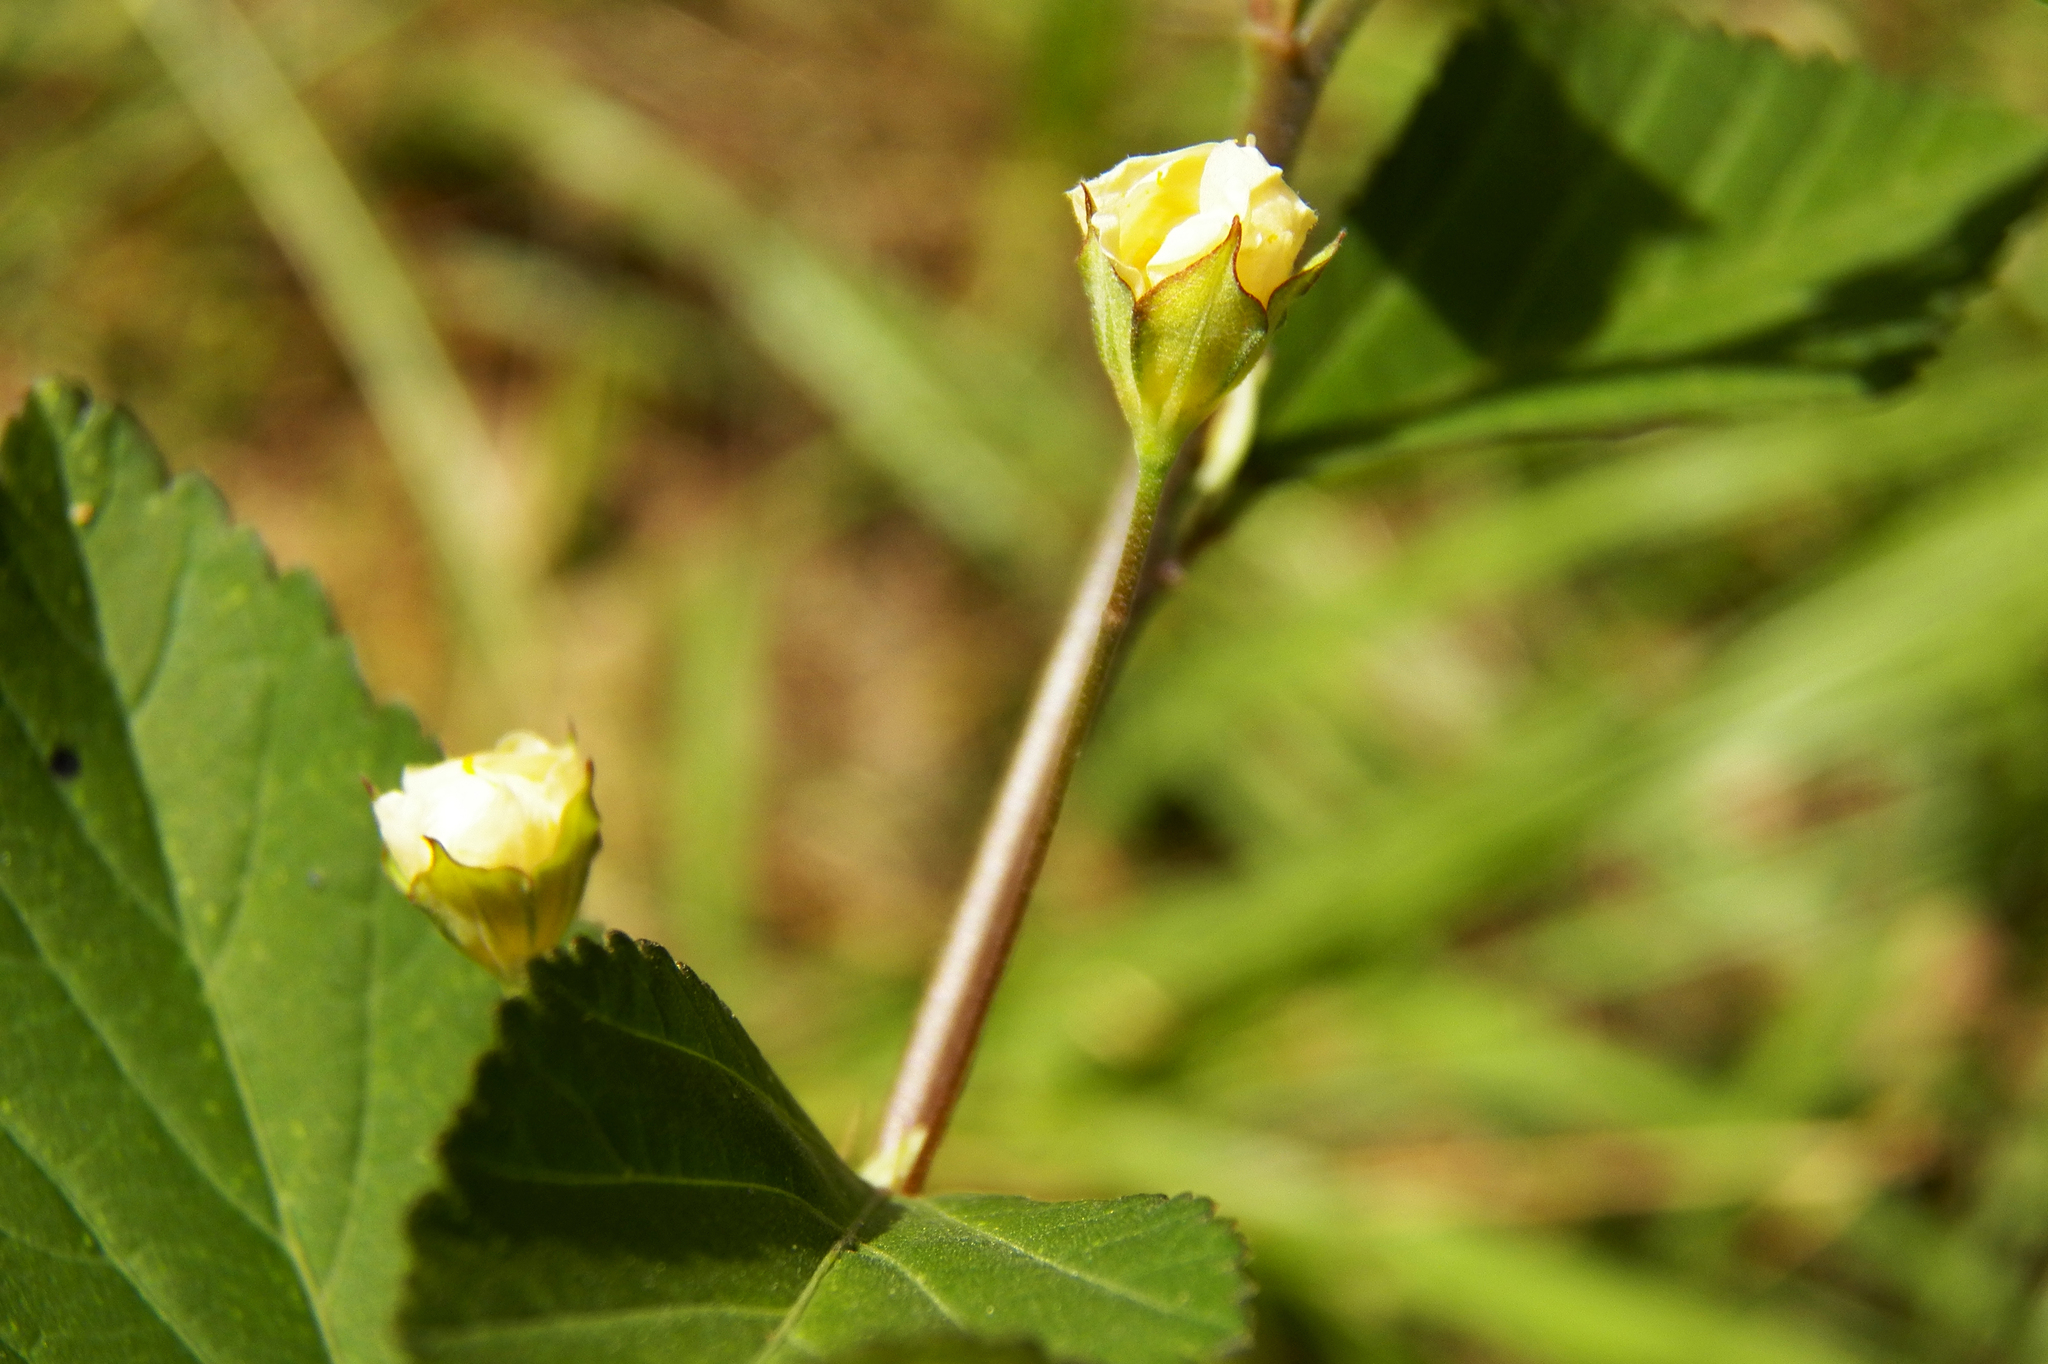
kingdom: Plantae
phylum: Tracheophyta
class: Magnoliopsida
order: Malvales
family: Malvaceae
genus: Sida
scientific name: Sida rhombifolia
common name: Queensland-hemp
